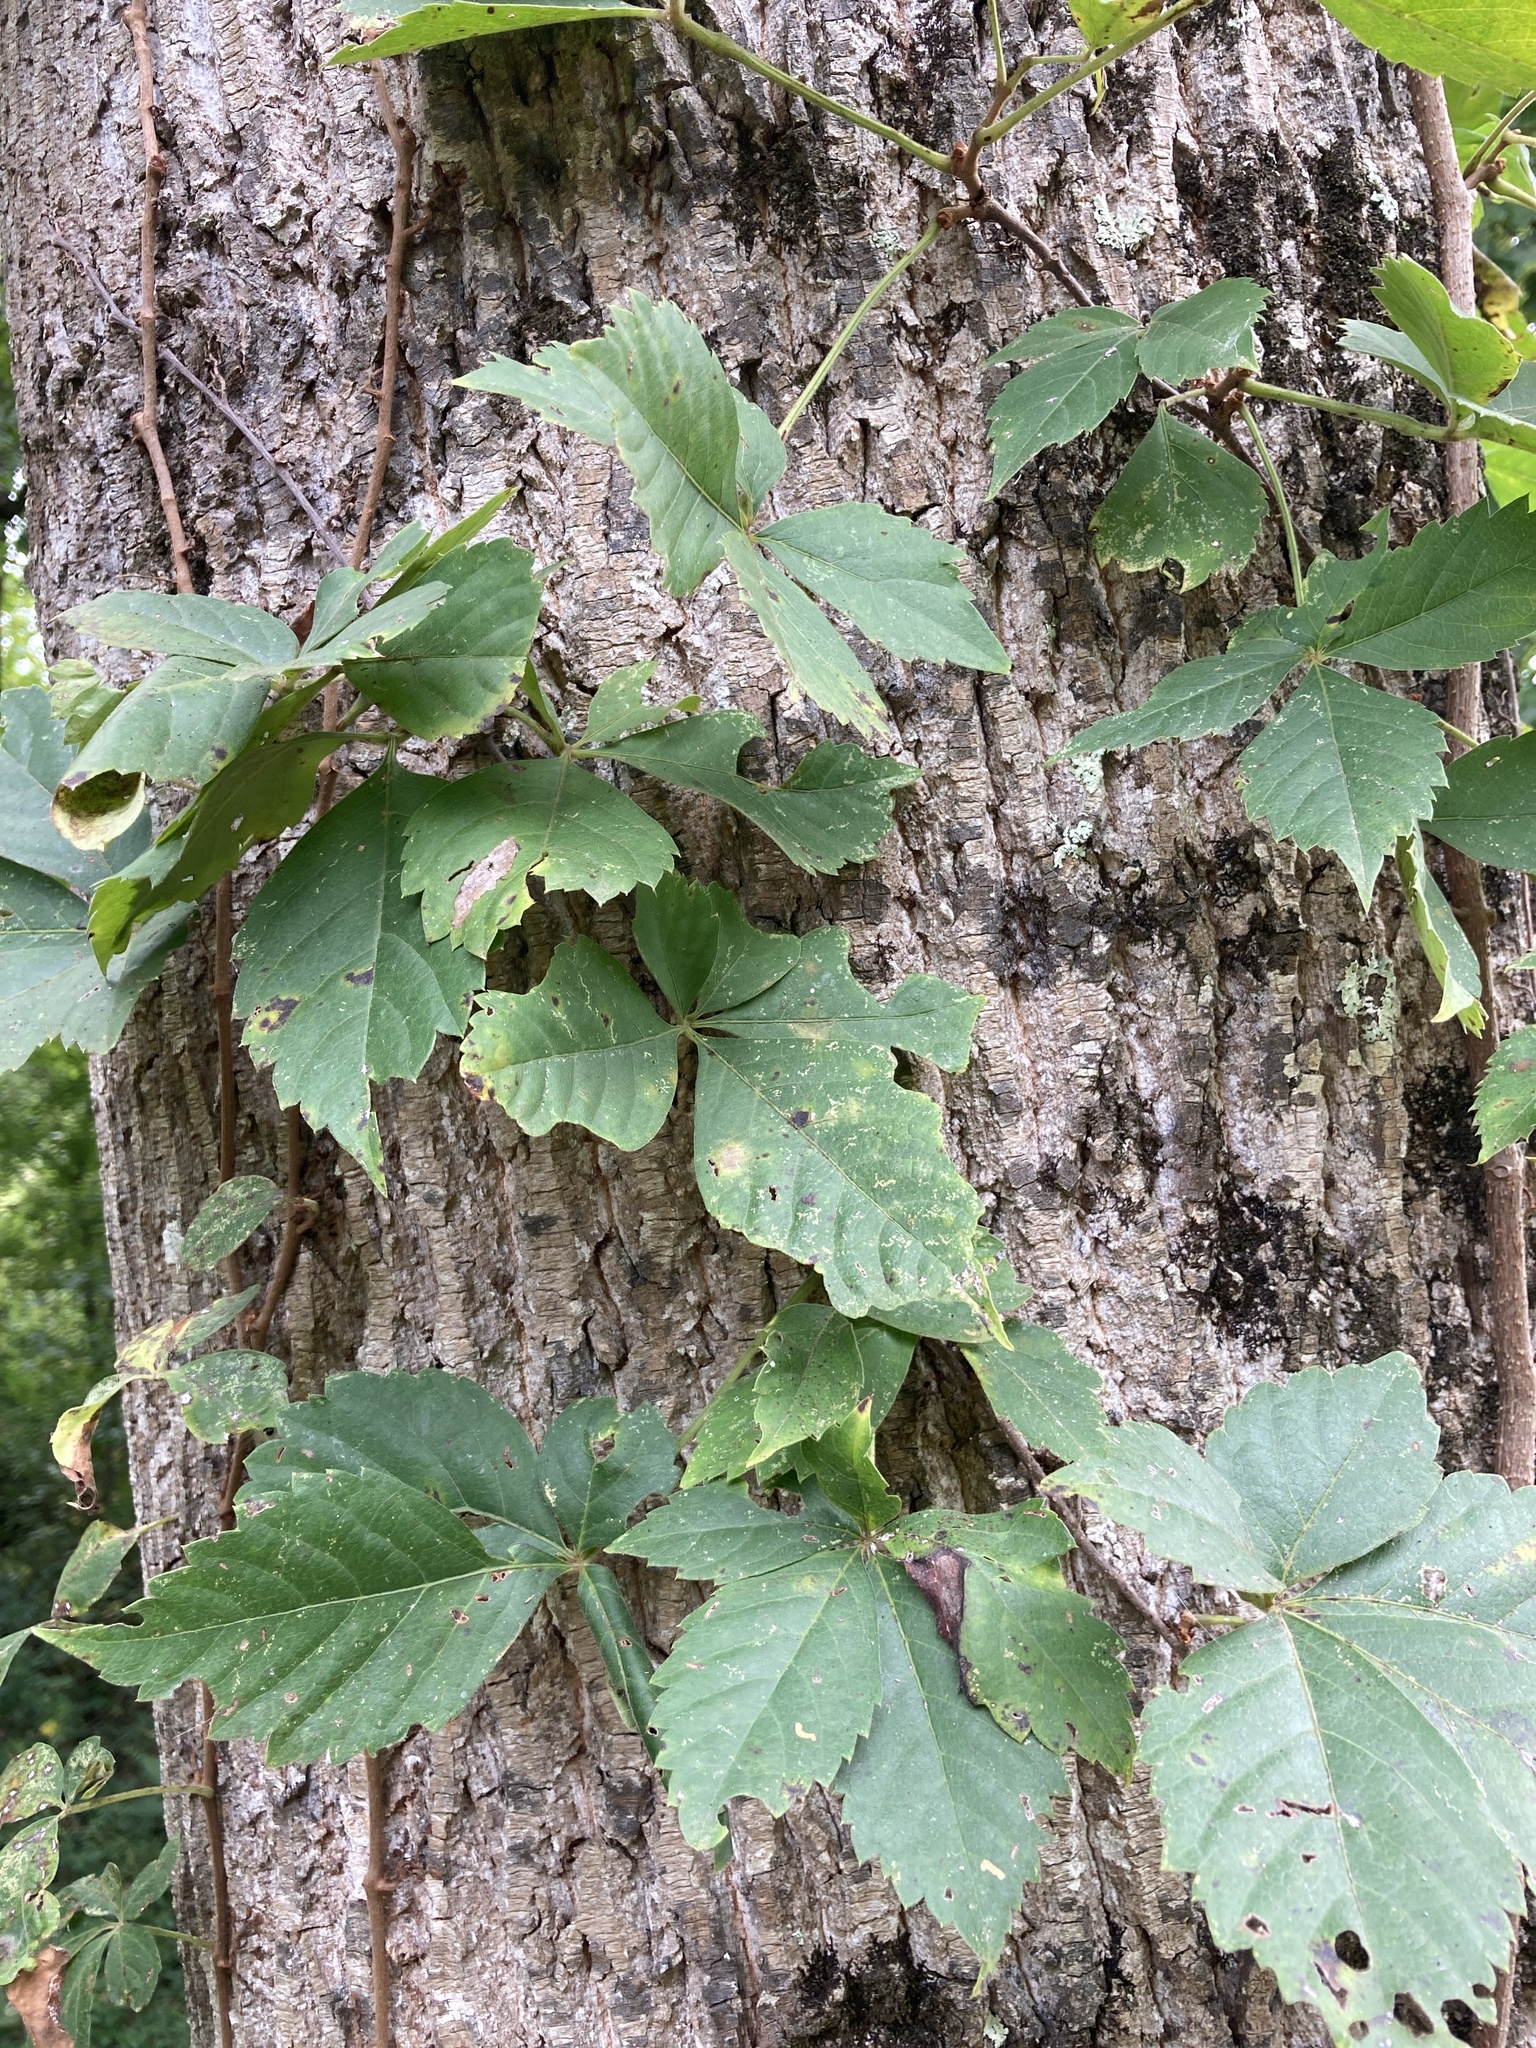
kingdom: Plantae
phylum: Tracheophyta
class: Magnoliopsida
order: Vitales
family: Vitaceae
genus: Parthenocissus
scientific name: Parthenocissus quinquefolia
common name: Virginia-creeper
